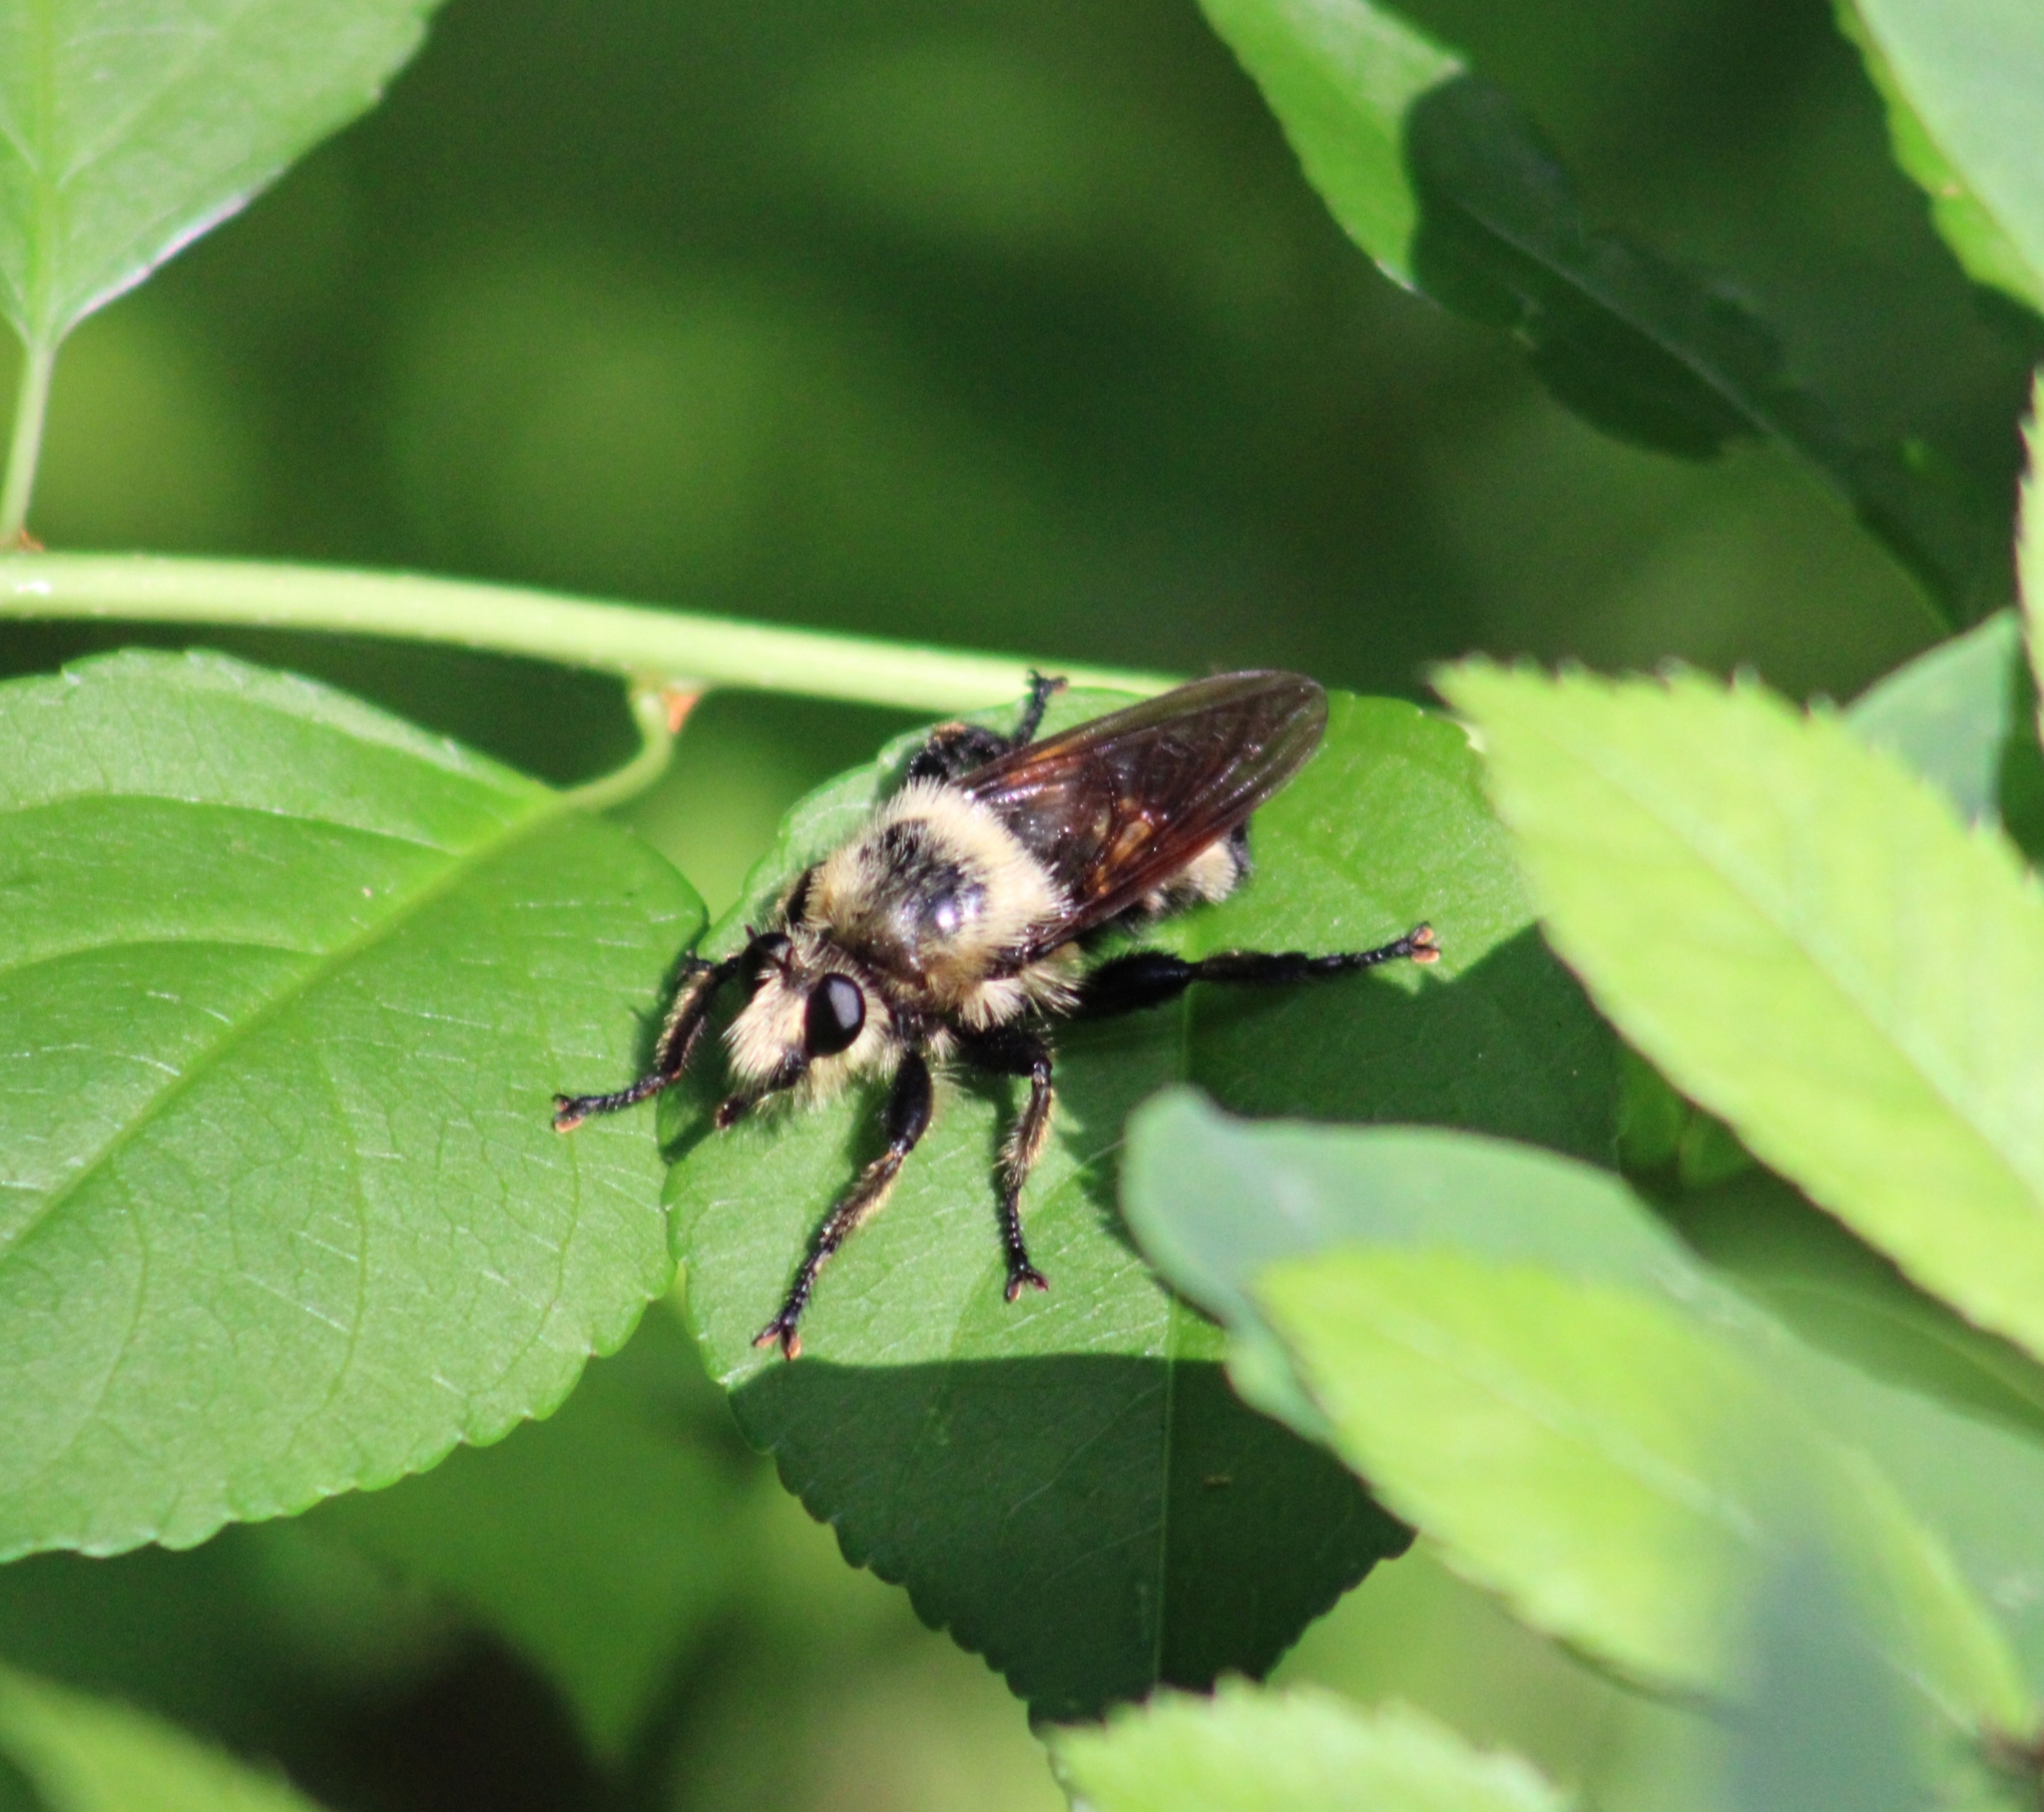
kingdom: Animalia
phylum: Arthropoda
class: Insecta
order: Diptera
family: Asilidae
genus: Laphria
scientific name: Laphria grossa
